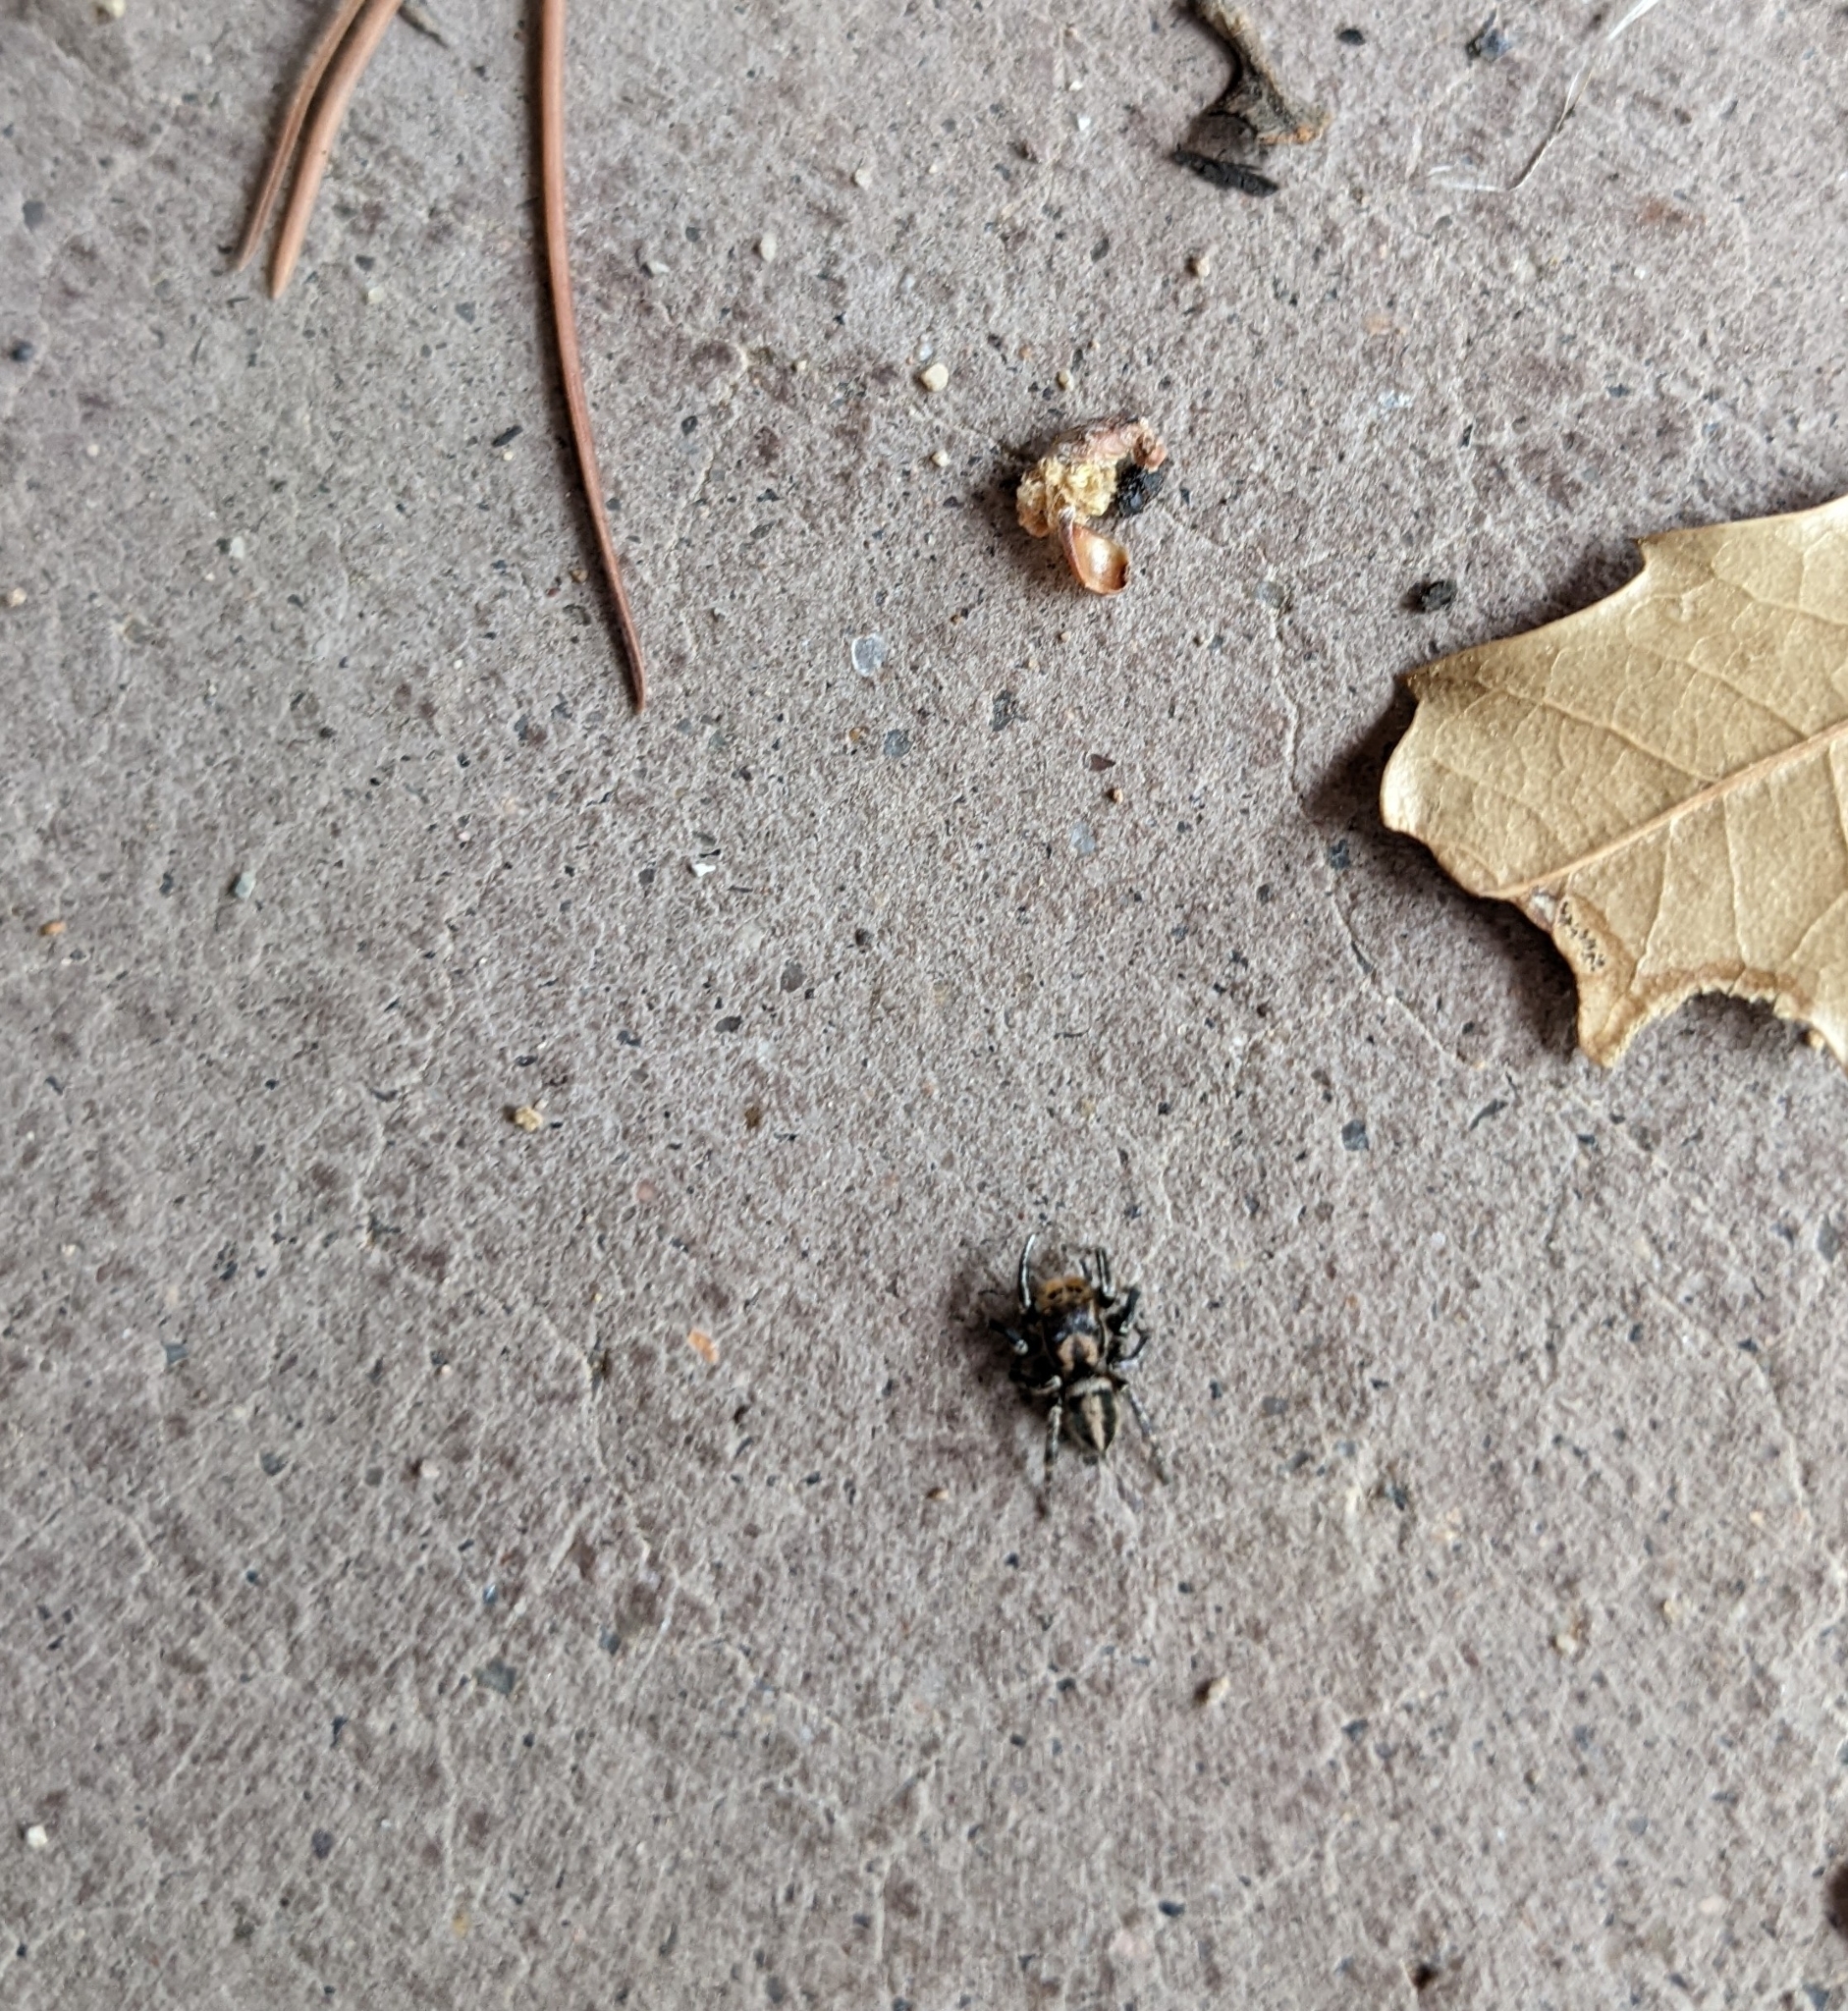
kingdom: Animalia
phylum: Arthropoda
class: Arachnida
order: Araneae
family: Salticidae
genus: Habronattus
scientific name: Habronattus hallani
